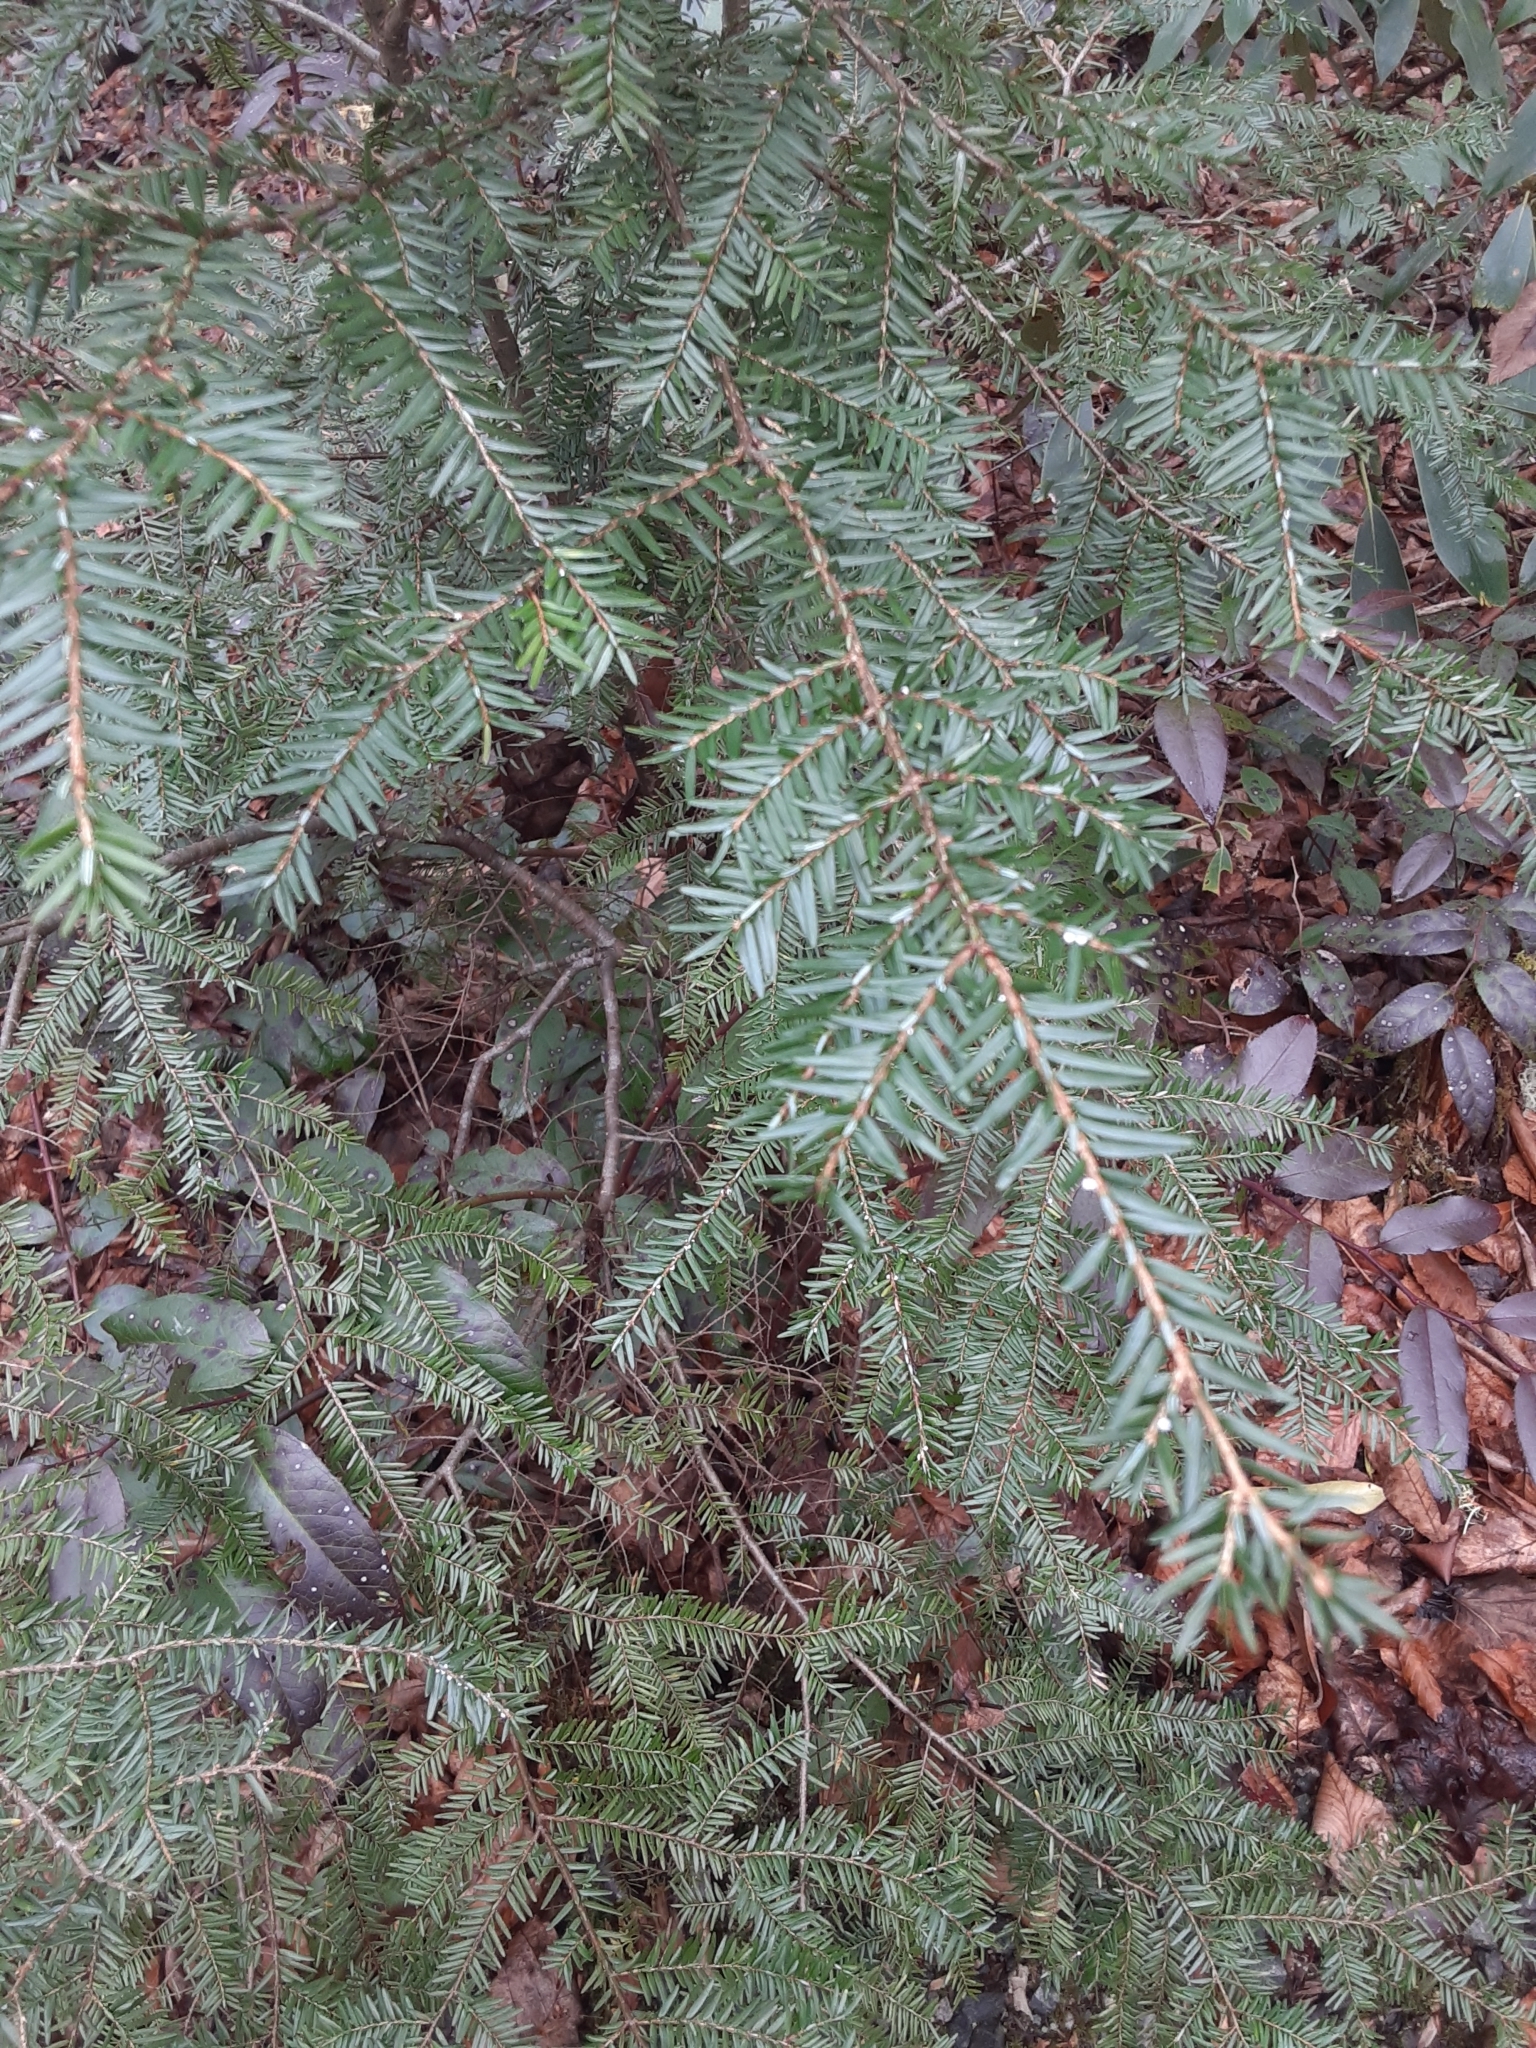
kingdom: Plantae
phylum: Tracheophyta
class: Pinopsida
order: Pinales
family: Pinaceae
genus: Tsuga
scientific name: Tsuga canadensis
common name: Eastern hemlock
